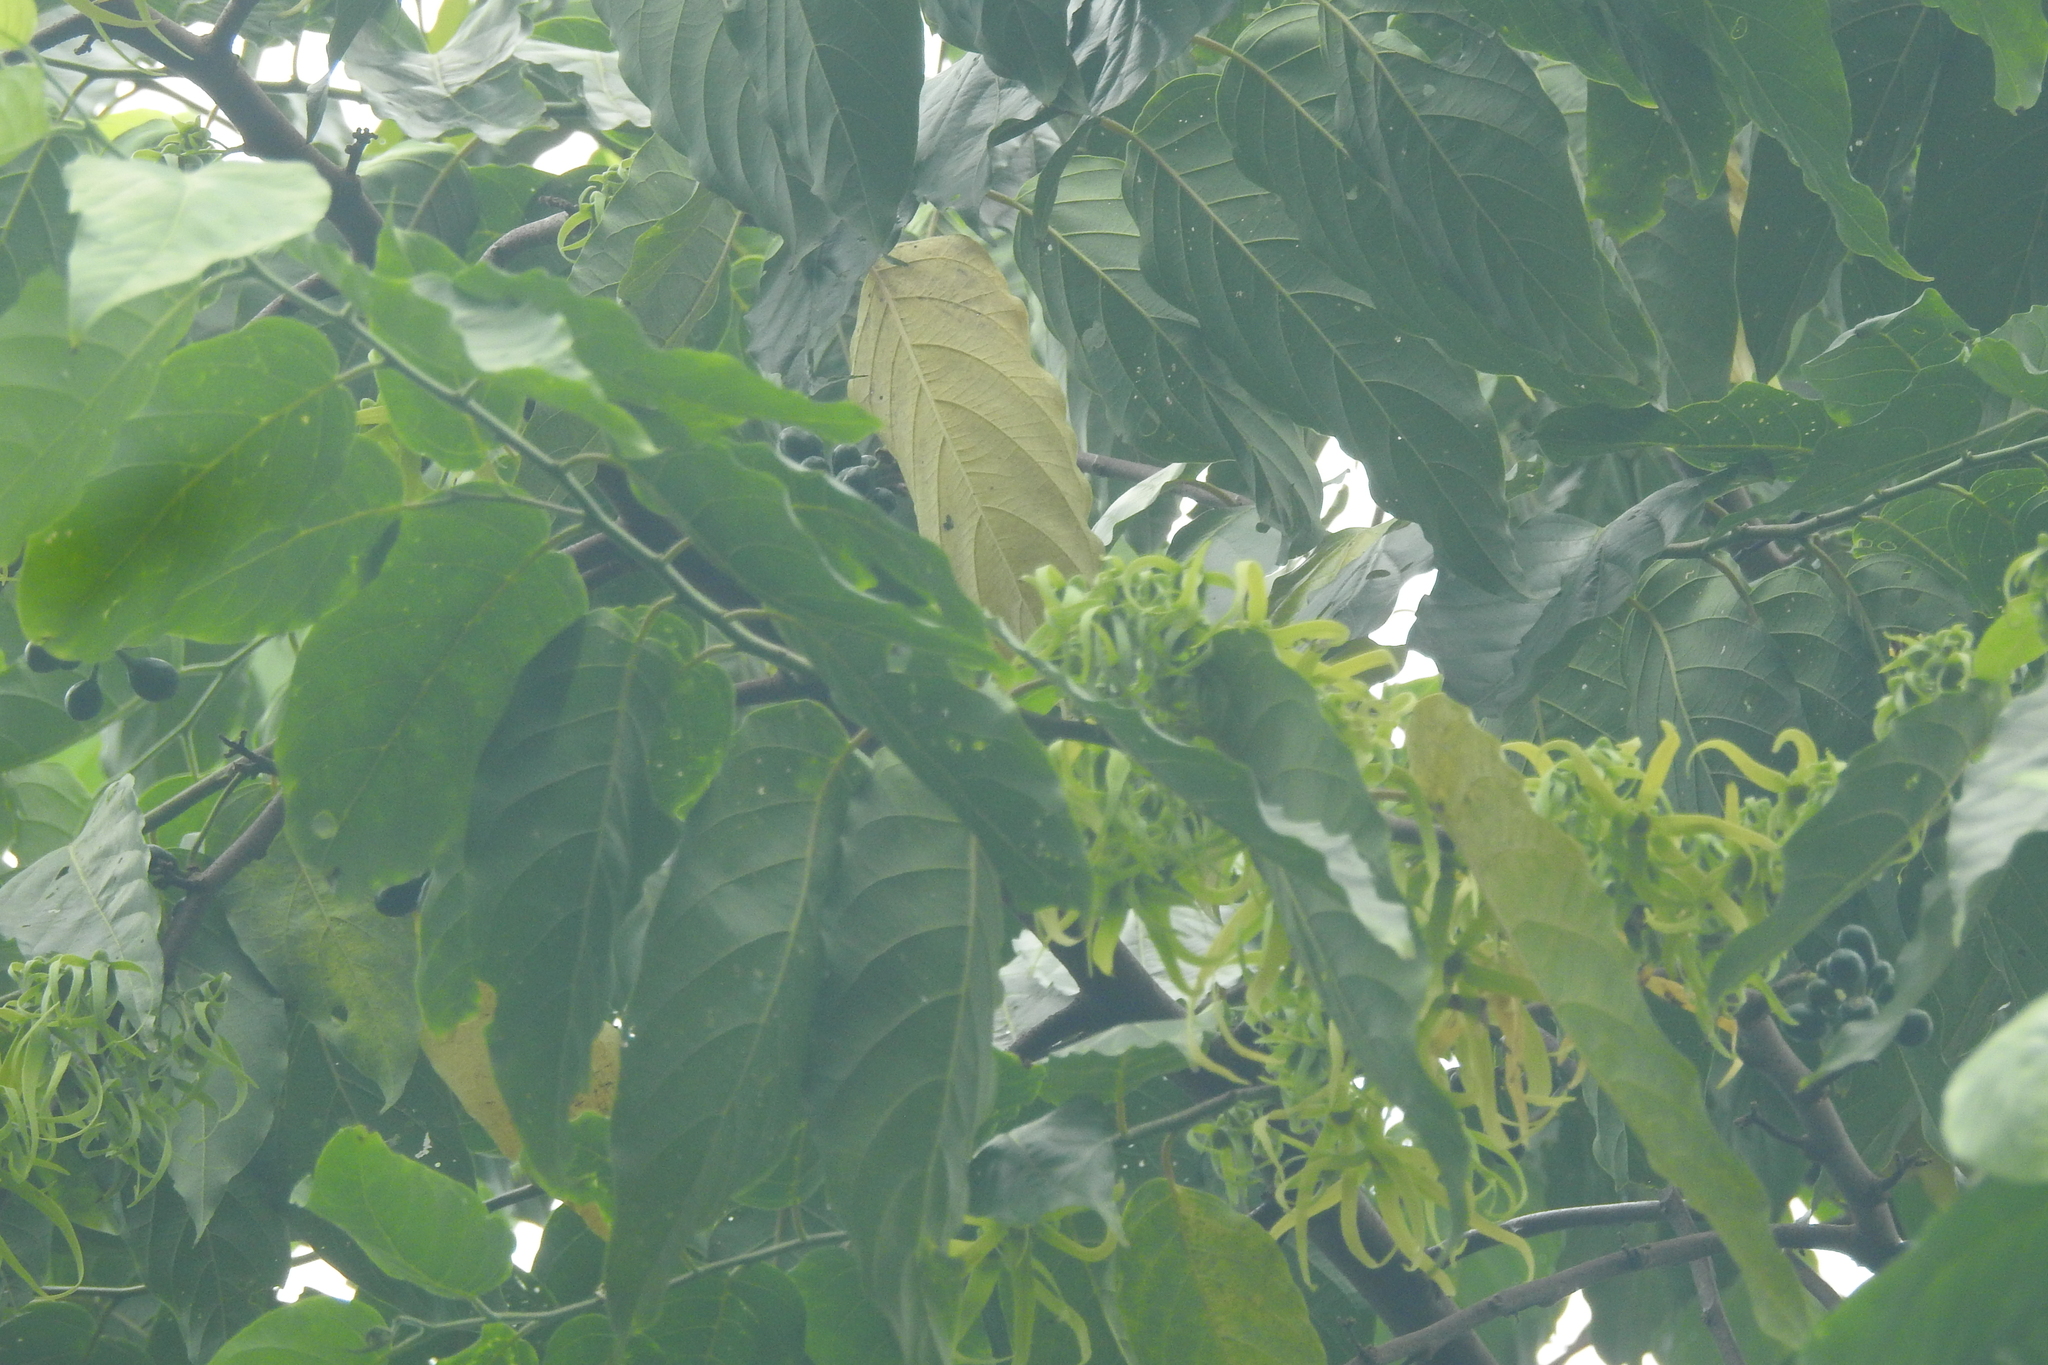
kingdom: Plantae
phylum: Tracheophyta
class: Magnoliopsida
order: Magnoliales
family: Annonaceae
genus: Cananga
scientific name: Cananga odorata
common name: Cananga tree
